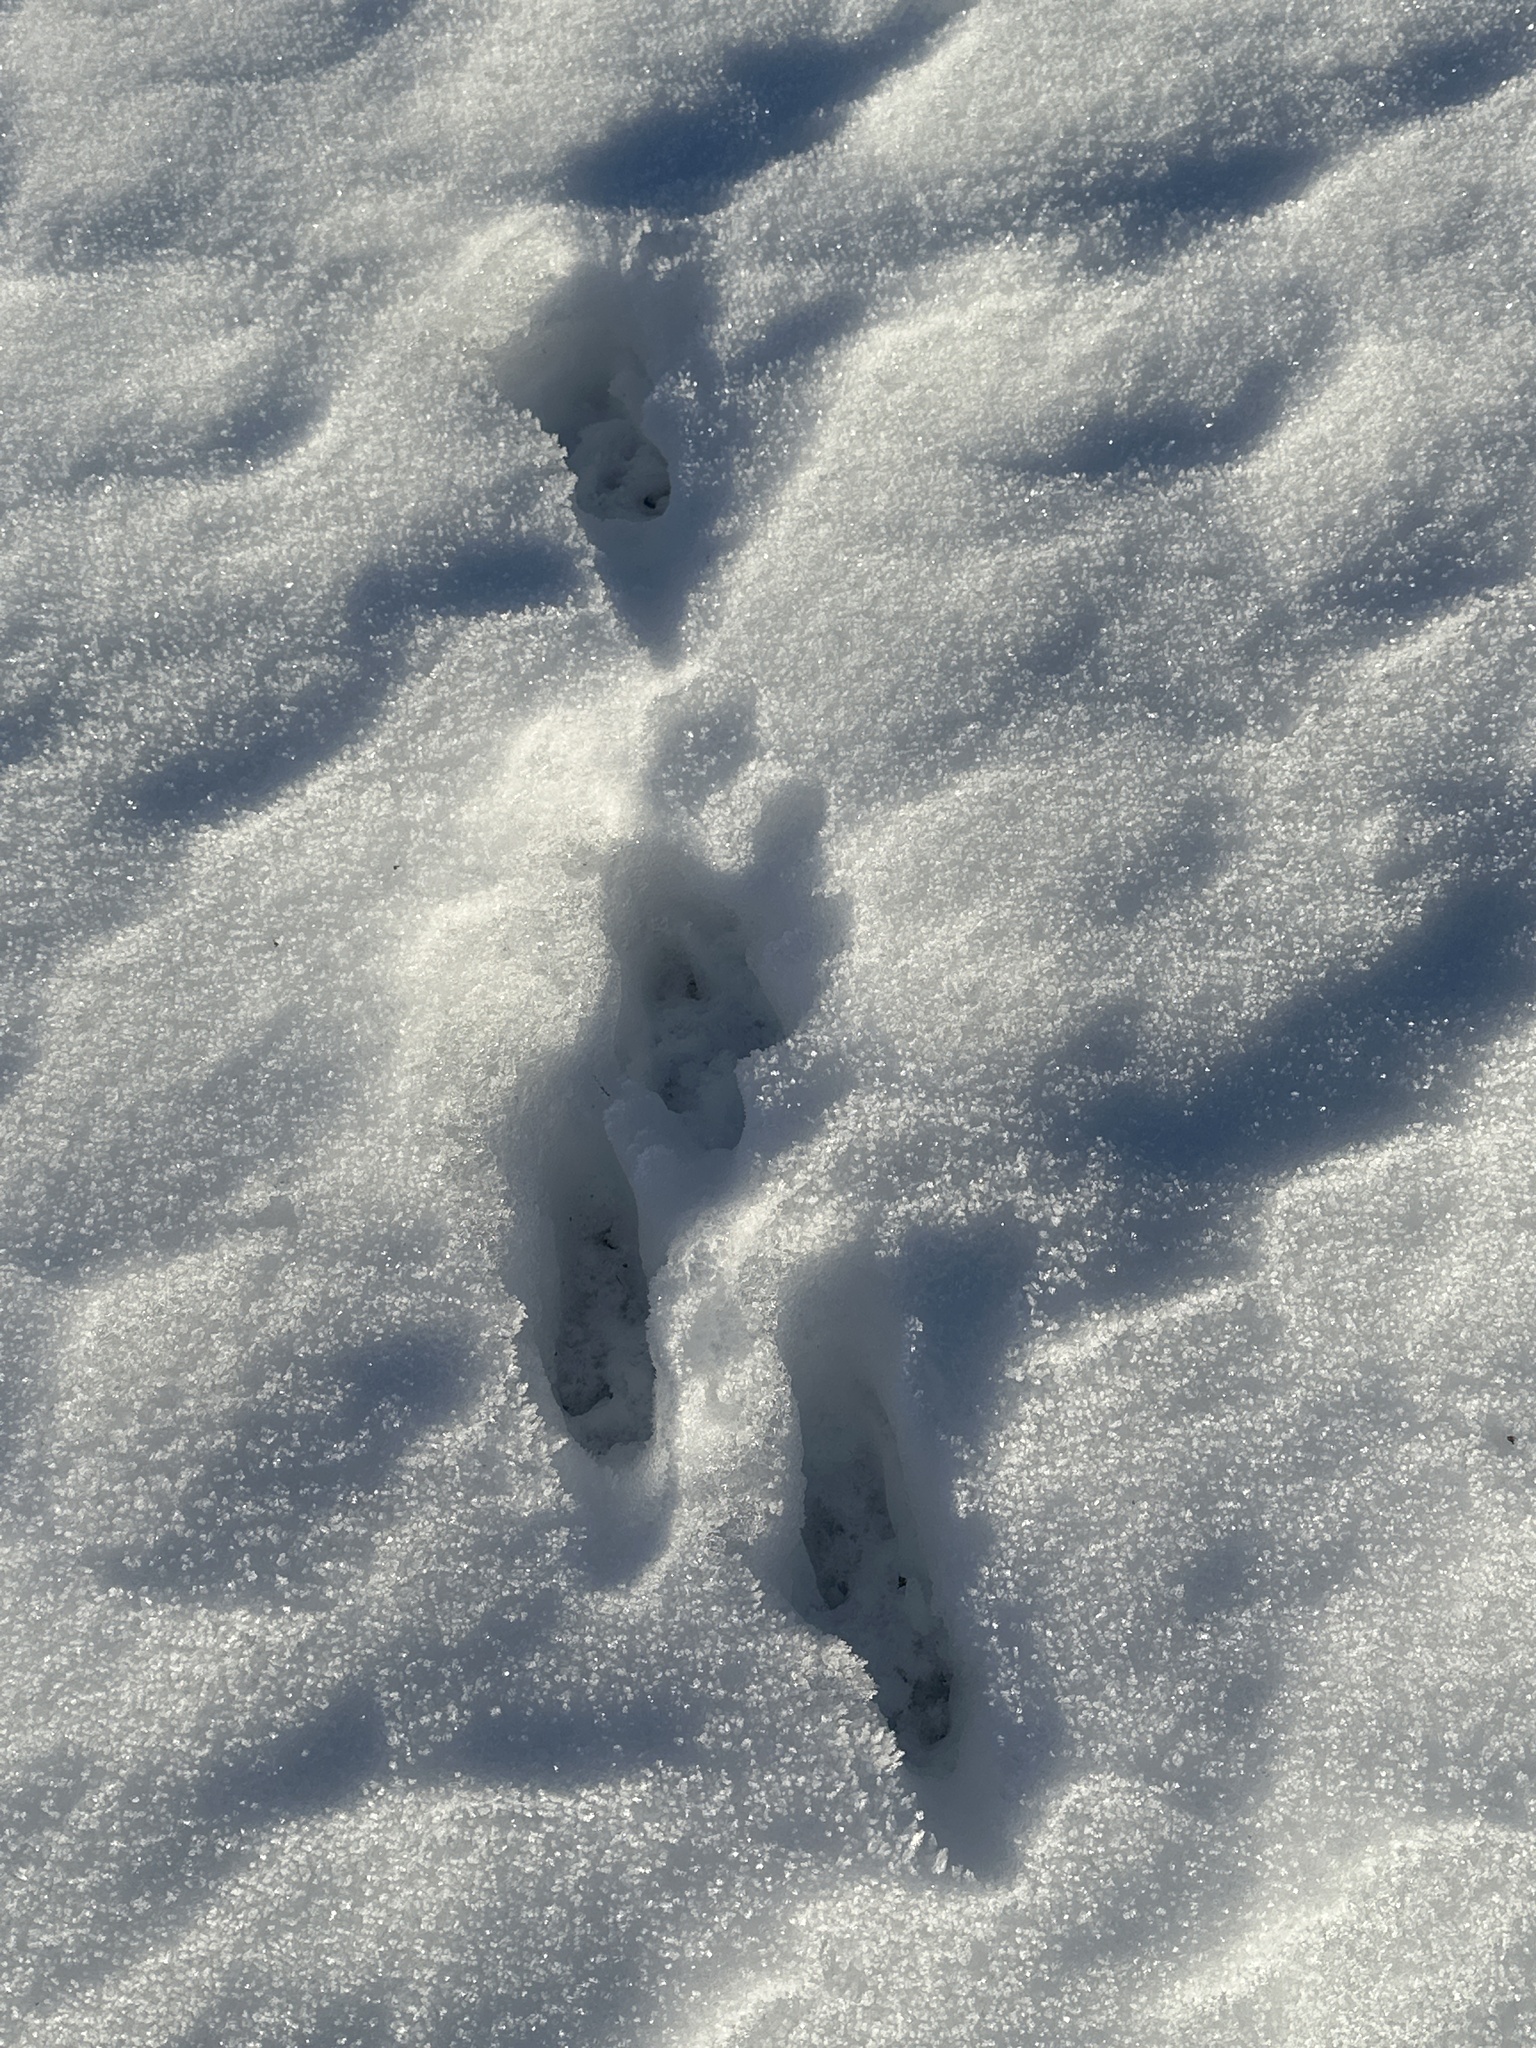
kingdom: Animalia
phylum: Chordata
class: Mammalia
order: Lagomorpha
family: Leporidae
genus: Lepus
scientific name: Lepus europaeus
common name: European hare
